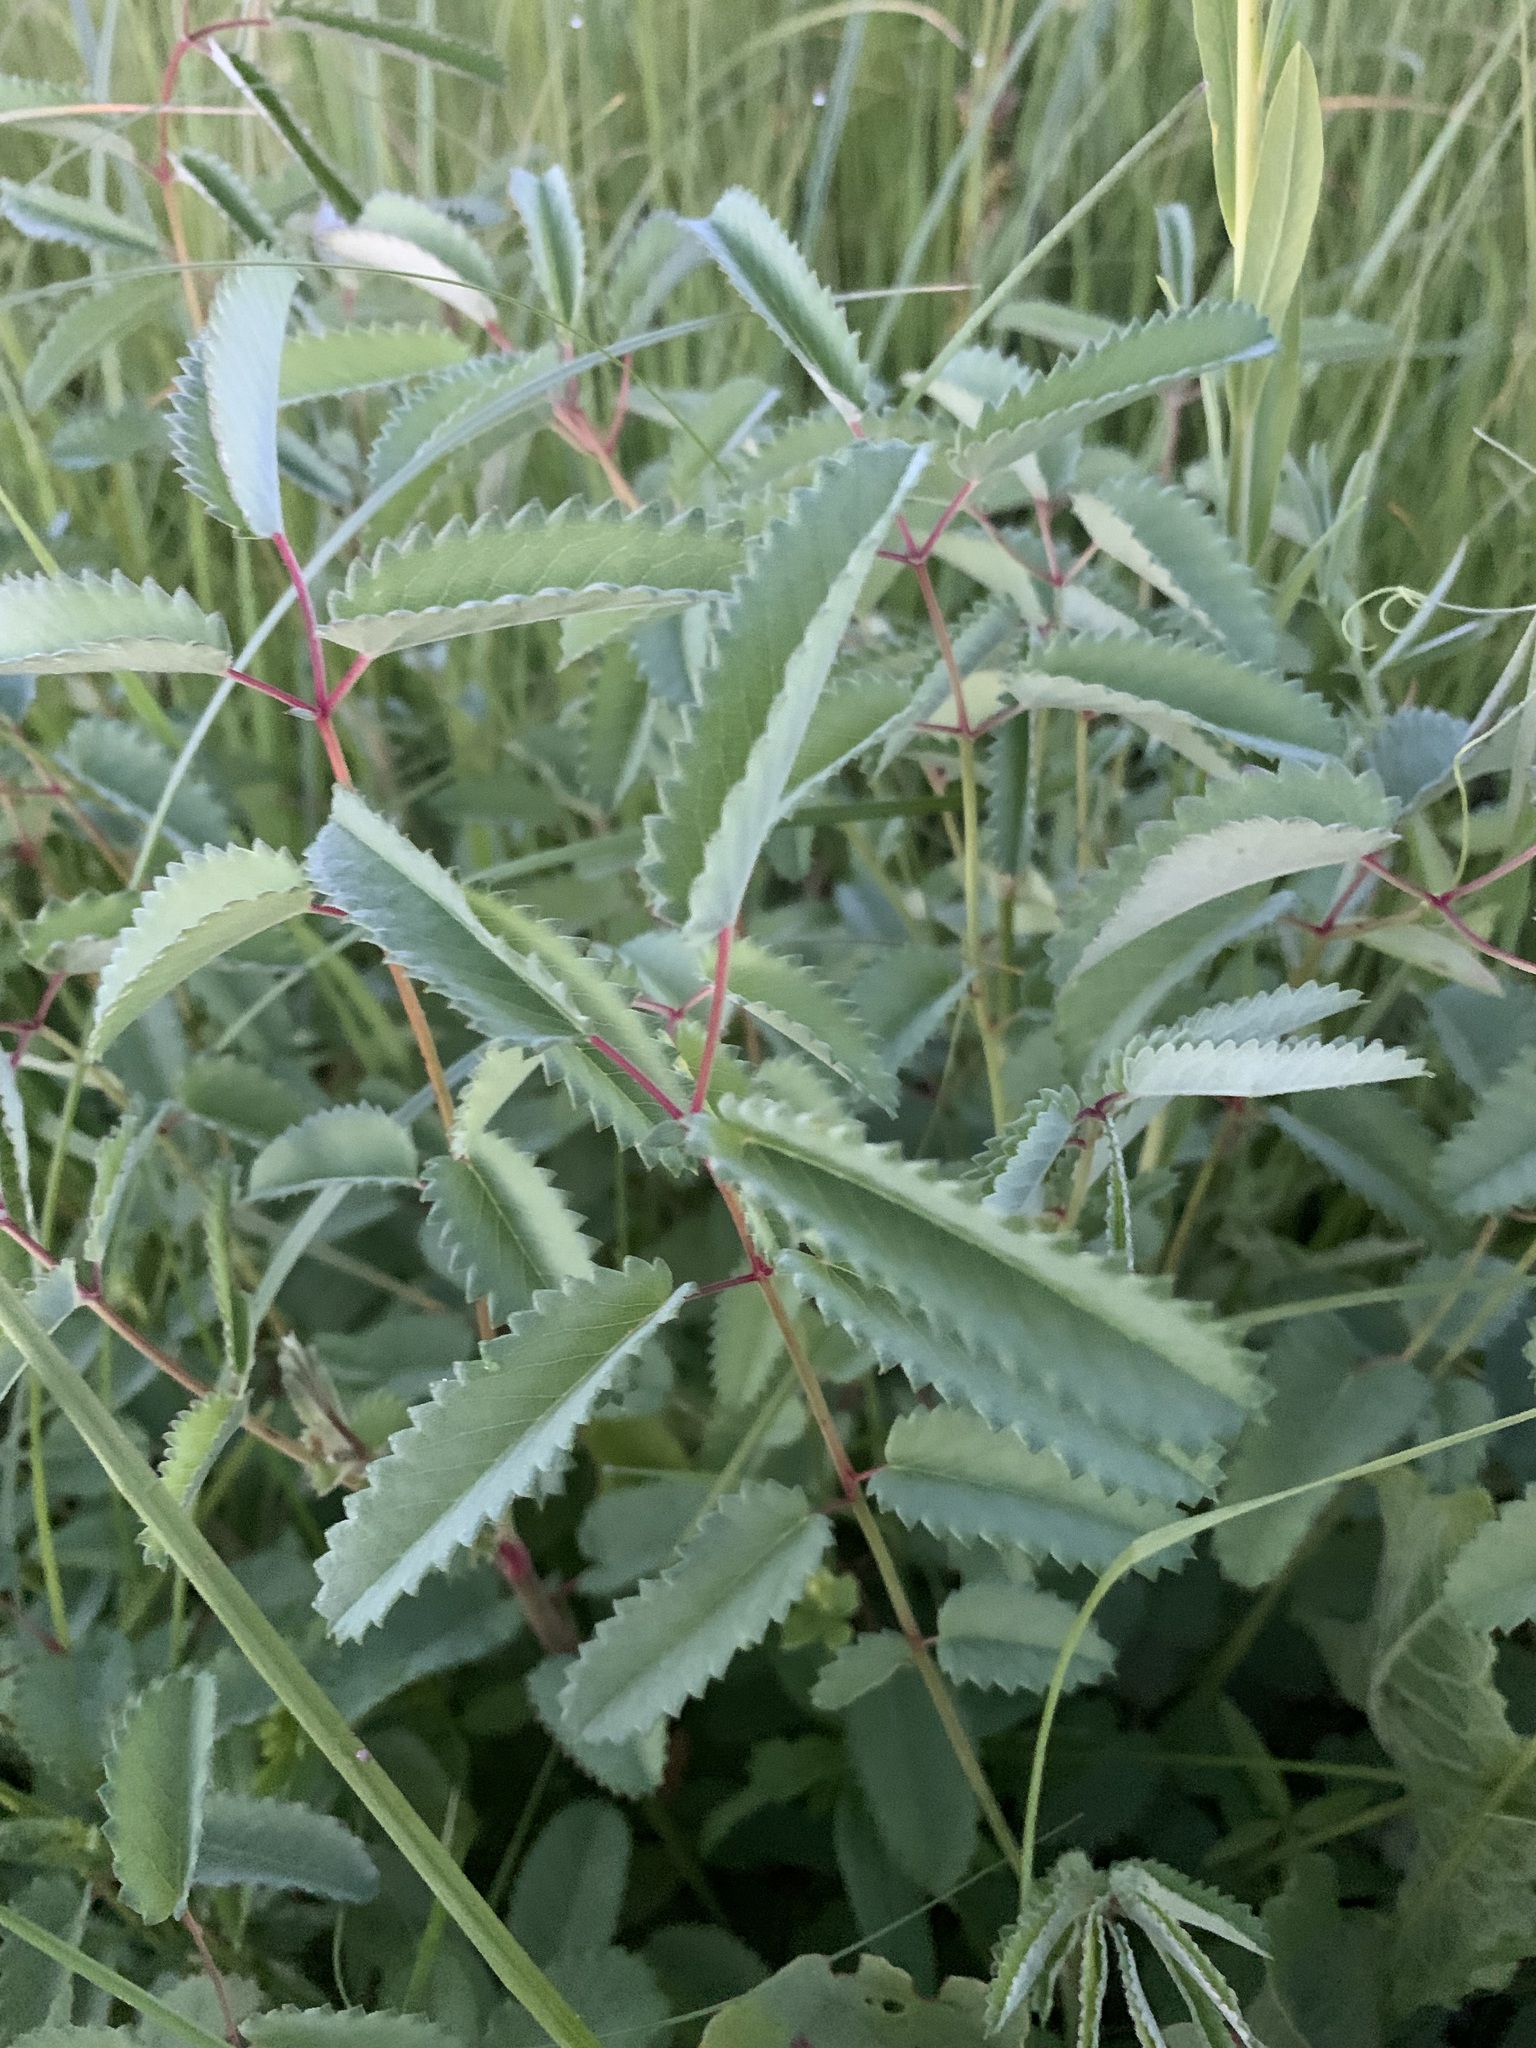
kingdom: Plantae
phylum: Tracheophyta
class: Magnoliopsida
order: Rosales
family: Rosaceae
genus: Sanguisorba
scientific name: Sanguisorba officinalis
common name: Great burnet
